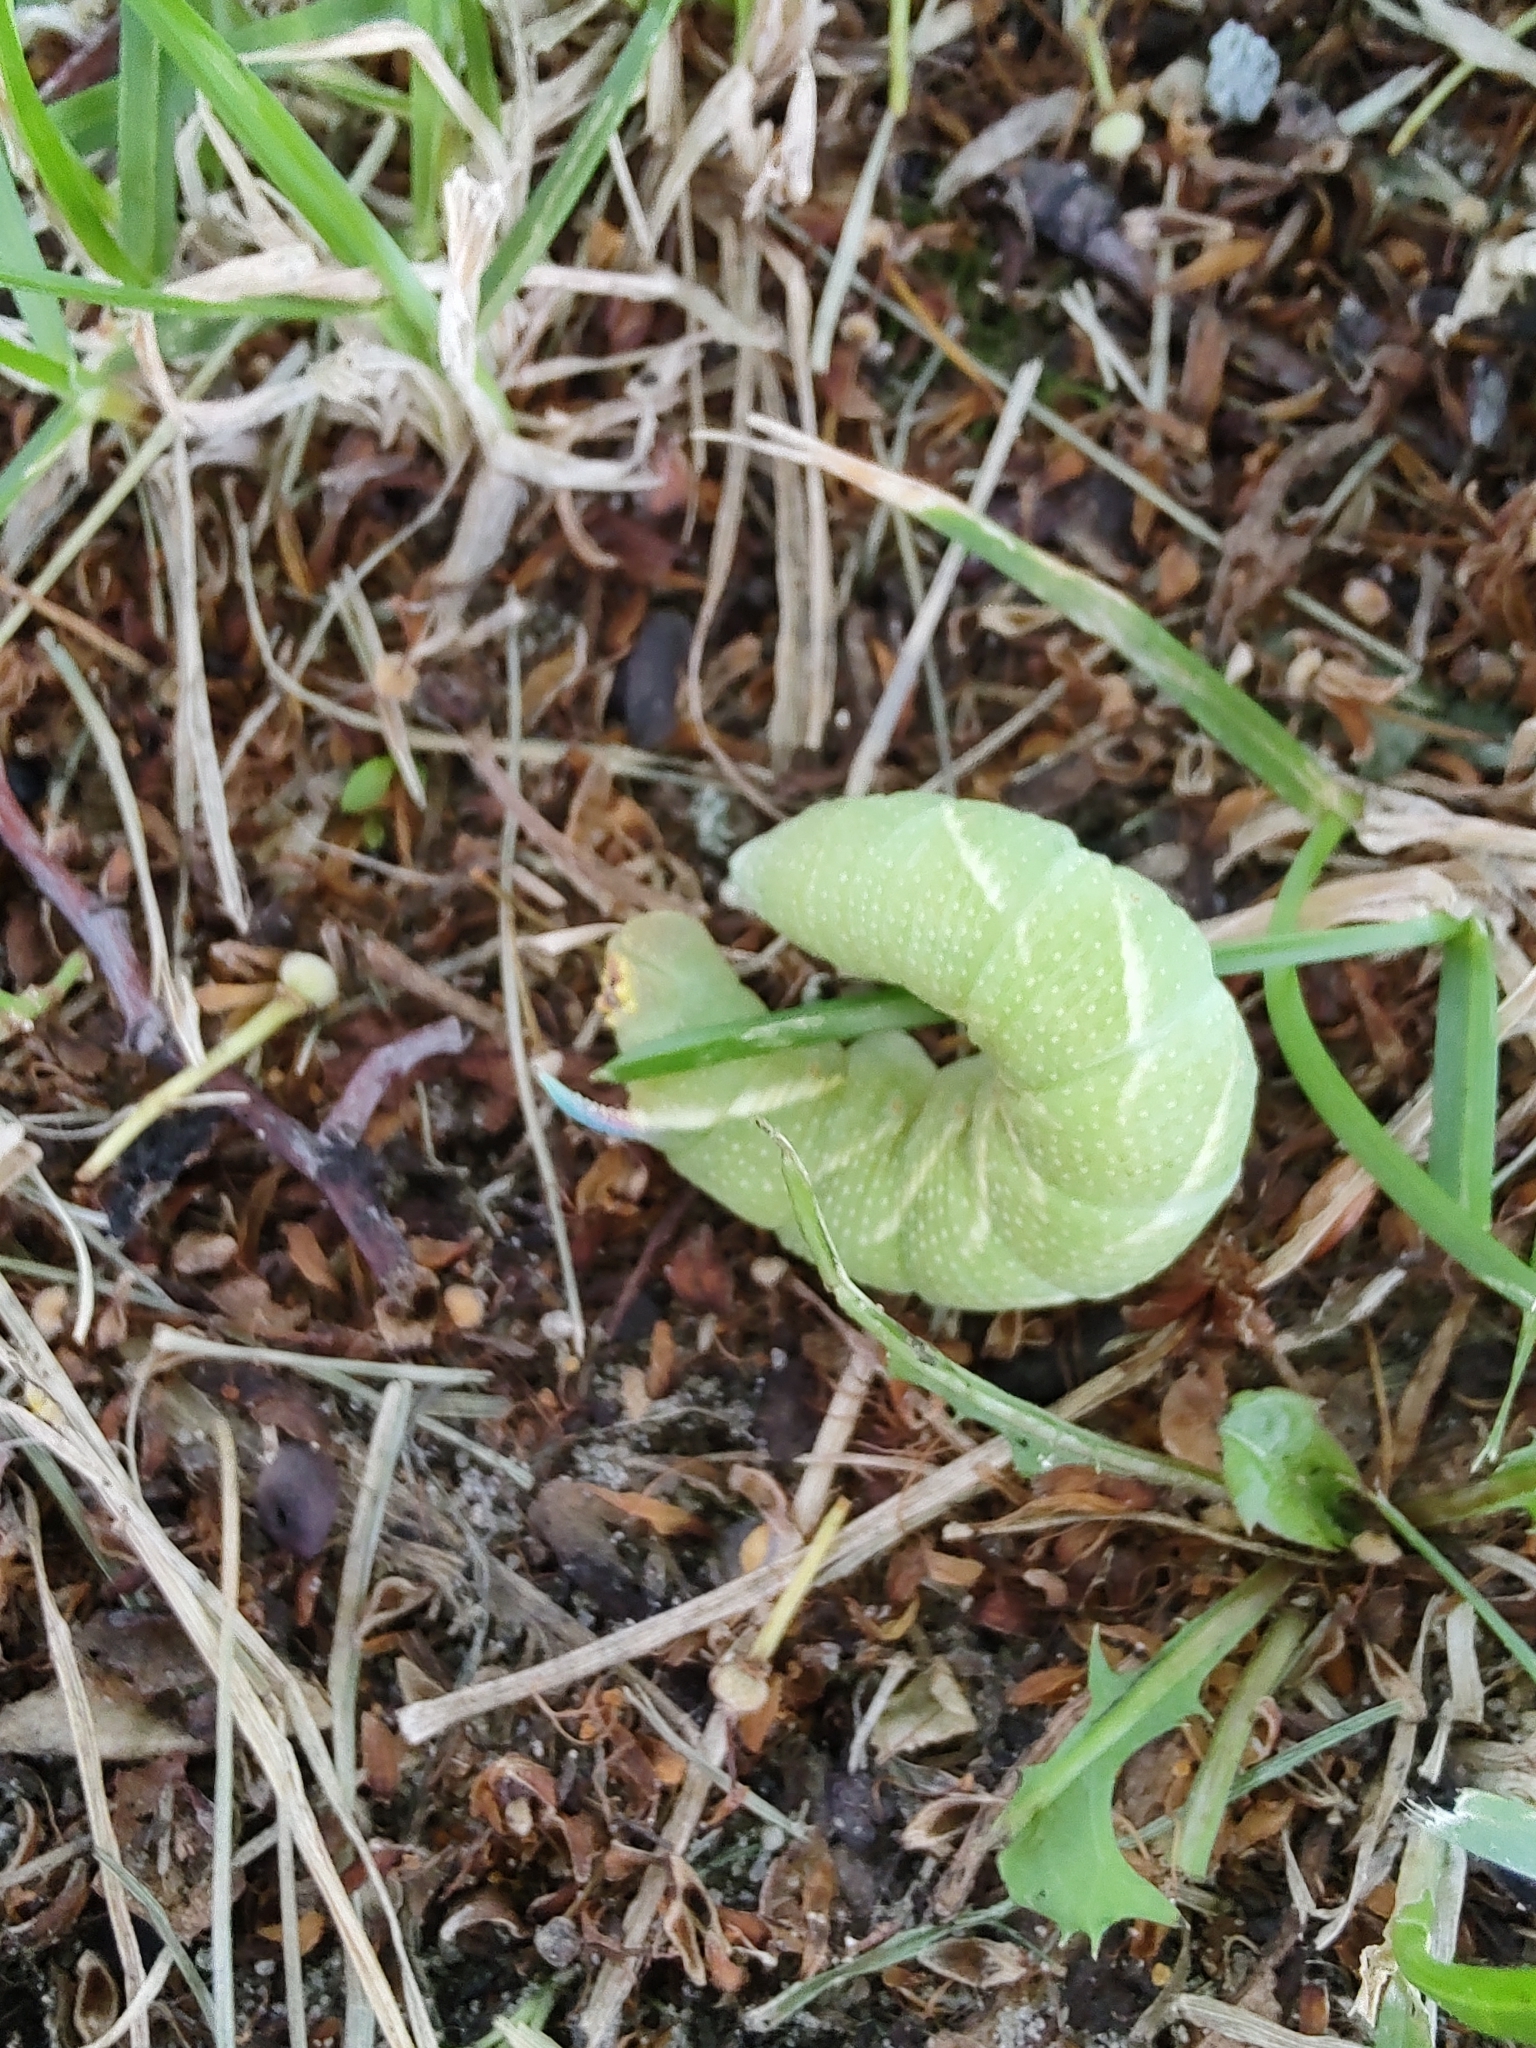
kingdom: Animalia
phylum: Arthropoda
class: Insecta
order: Lepidoptera
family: Sphingidae
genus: Mimas
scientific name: Mimas tiliae
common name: Lime hawk-moth
